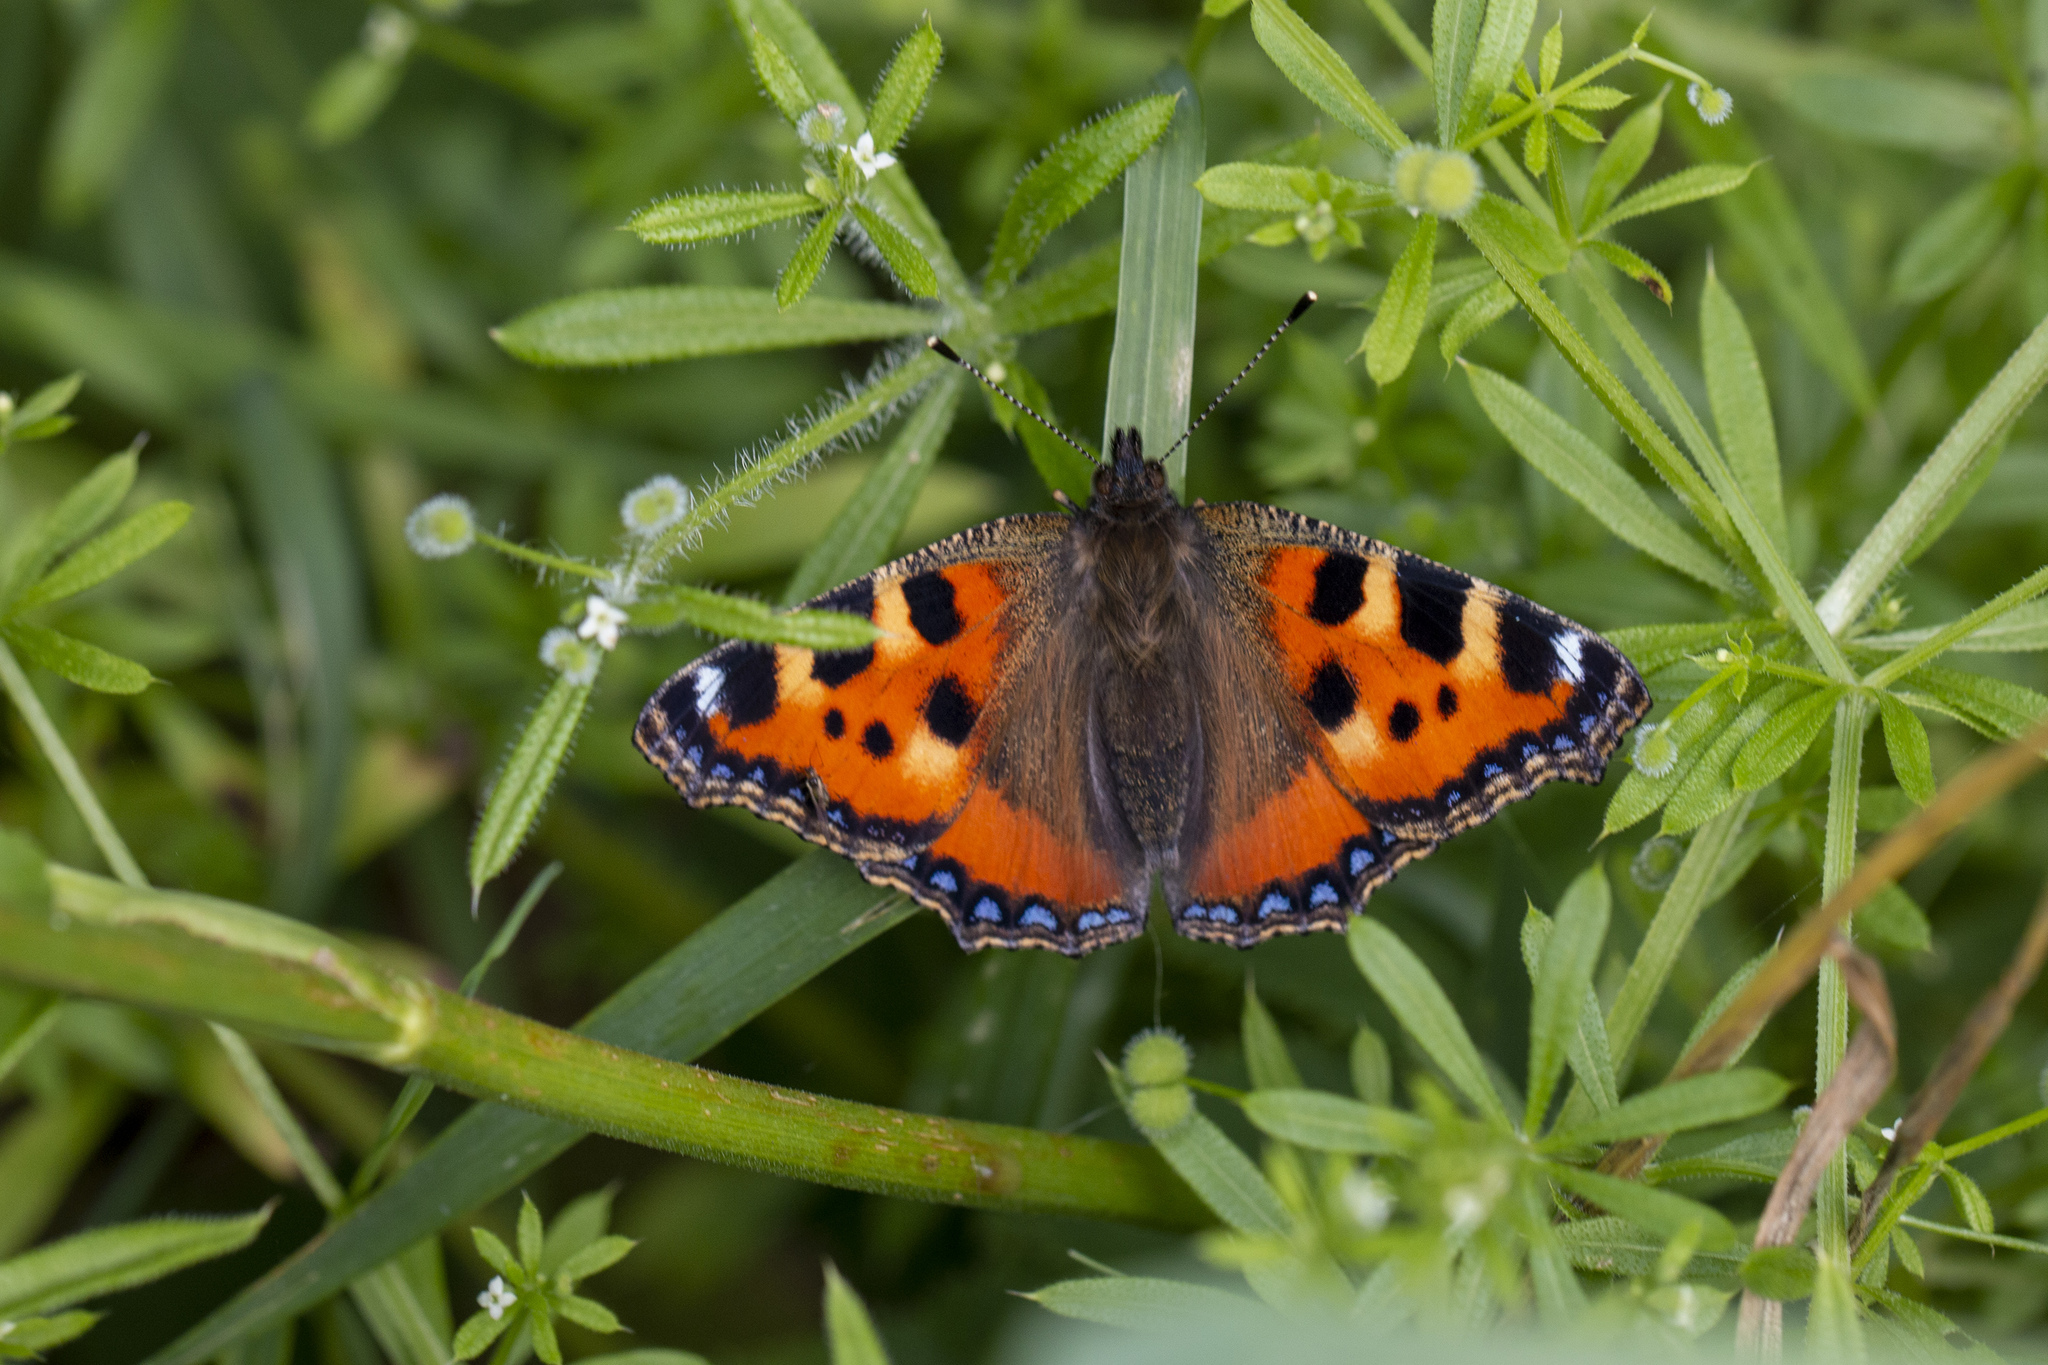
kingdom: Animalia
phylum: Arthropoda
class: Insecta
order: Lepidoptera
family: Nymphalidae
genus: Aglais
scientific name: Aglais urticae
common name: Small tortoiseshell
